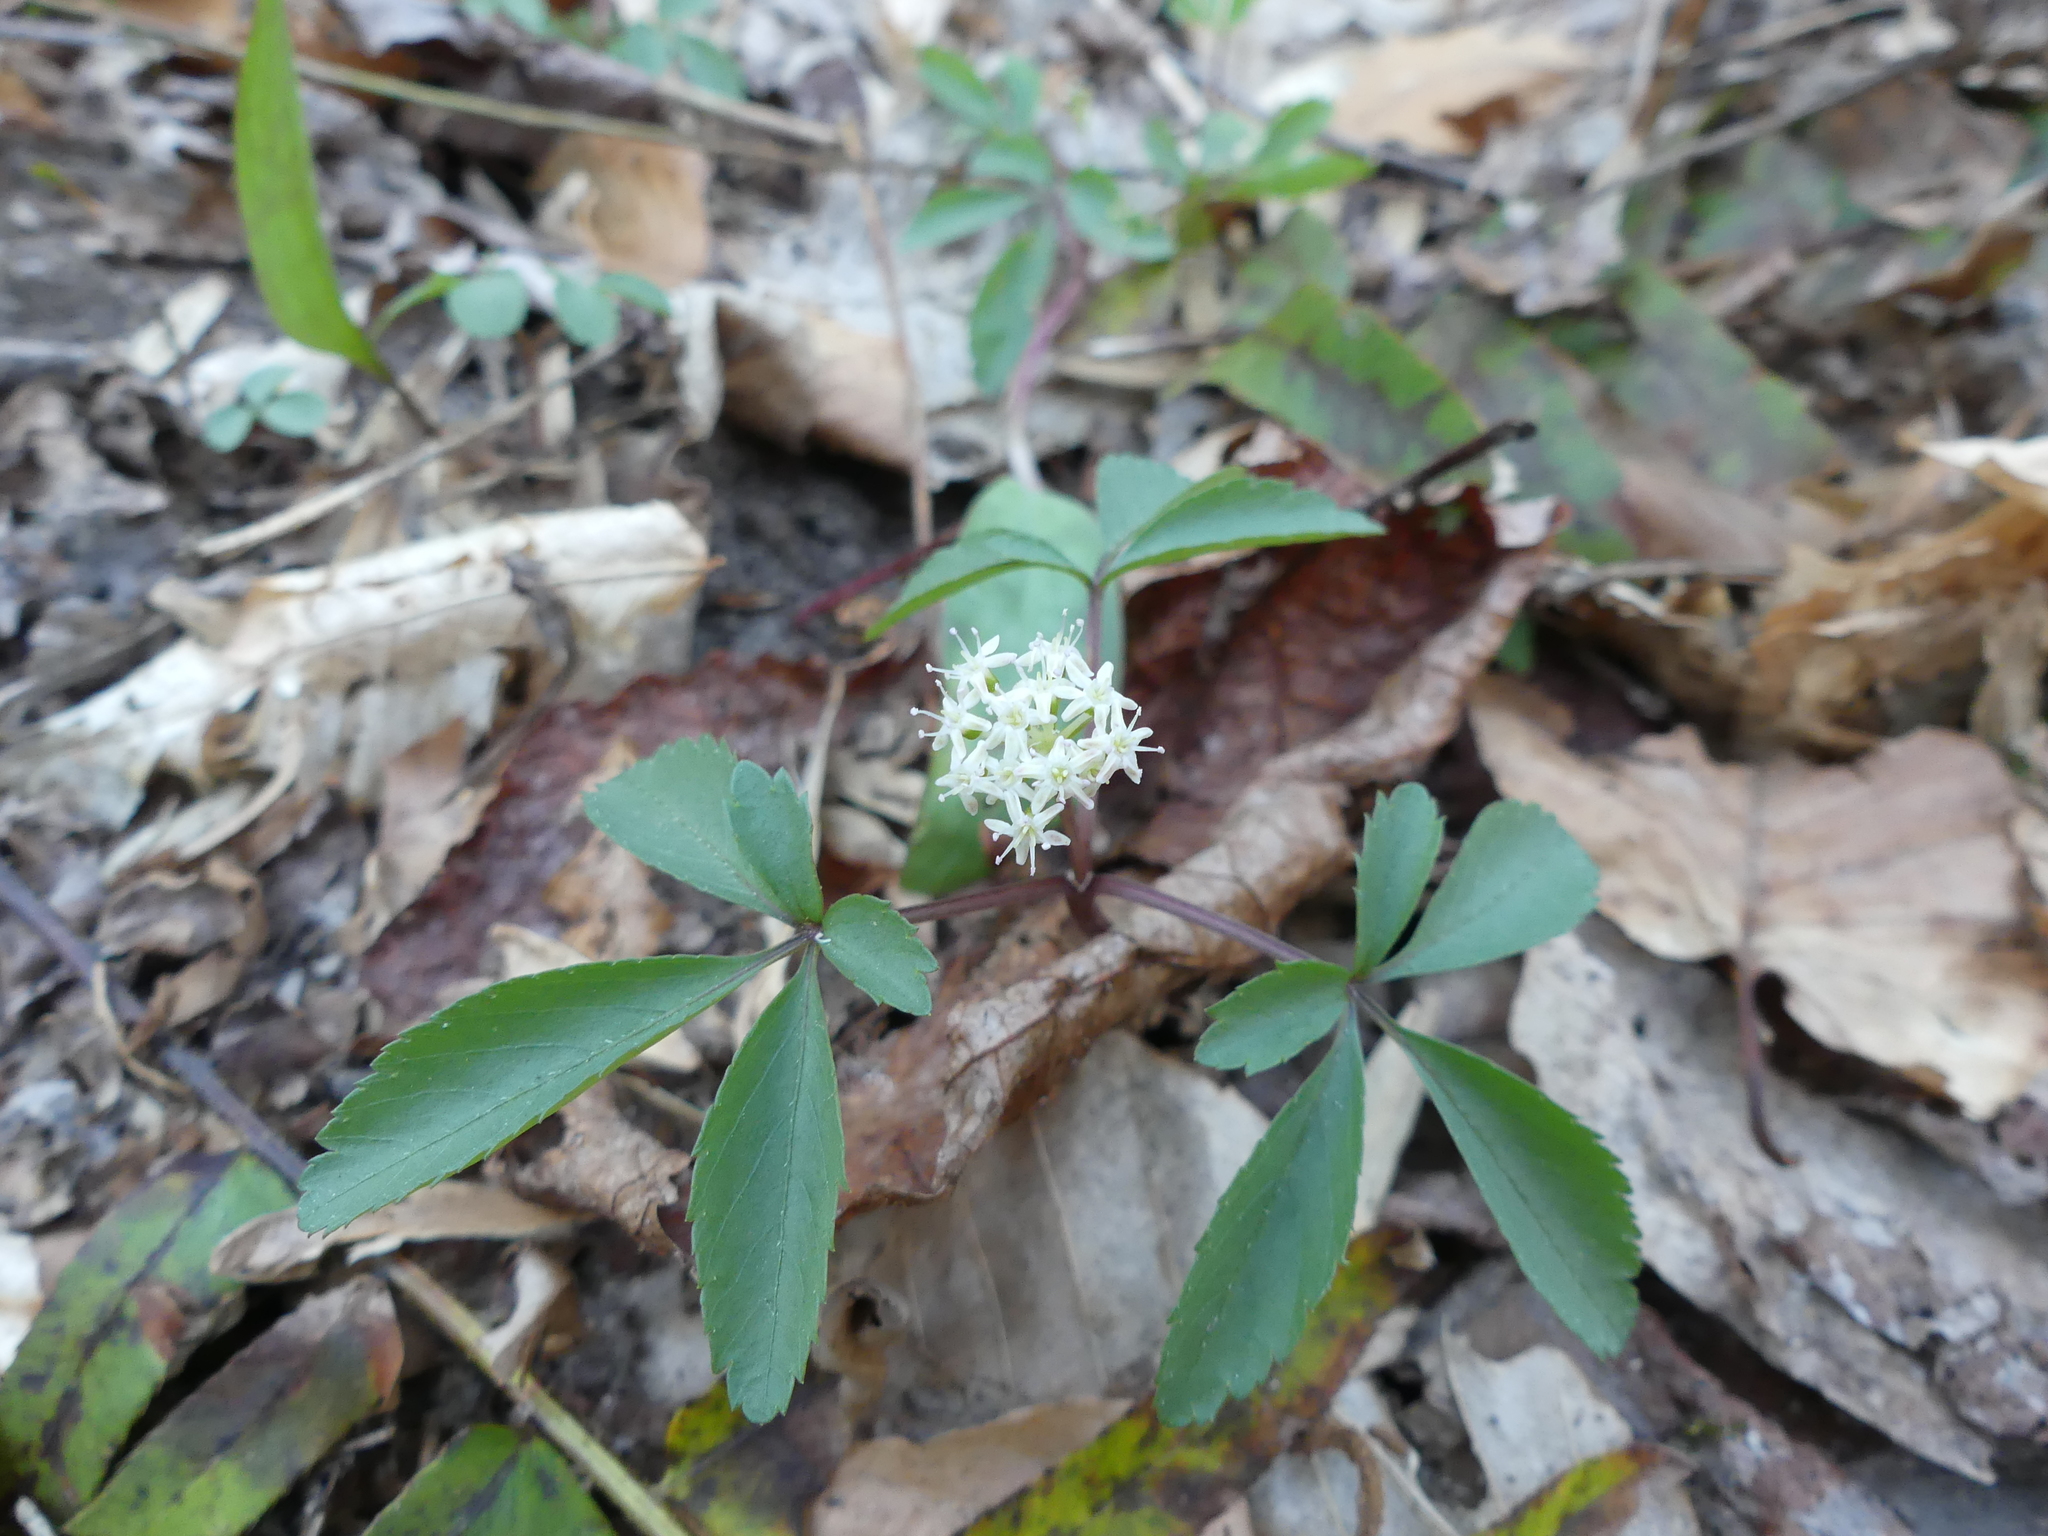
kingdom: Plantae
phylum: Tracheophyta
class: Magnoliopsida
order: Apiales
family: Araliaceae
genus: Panax
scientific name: Panax trifolius
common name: Dwarf ginseng
